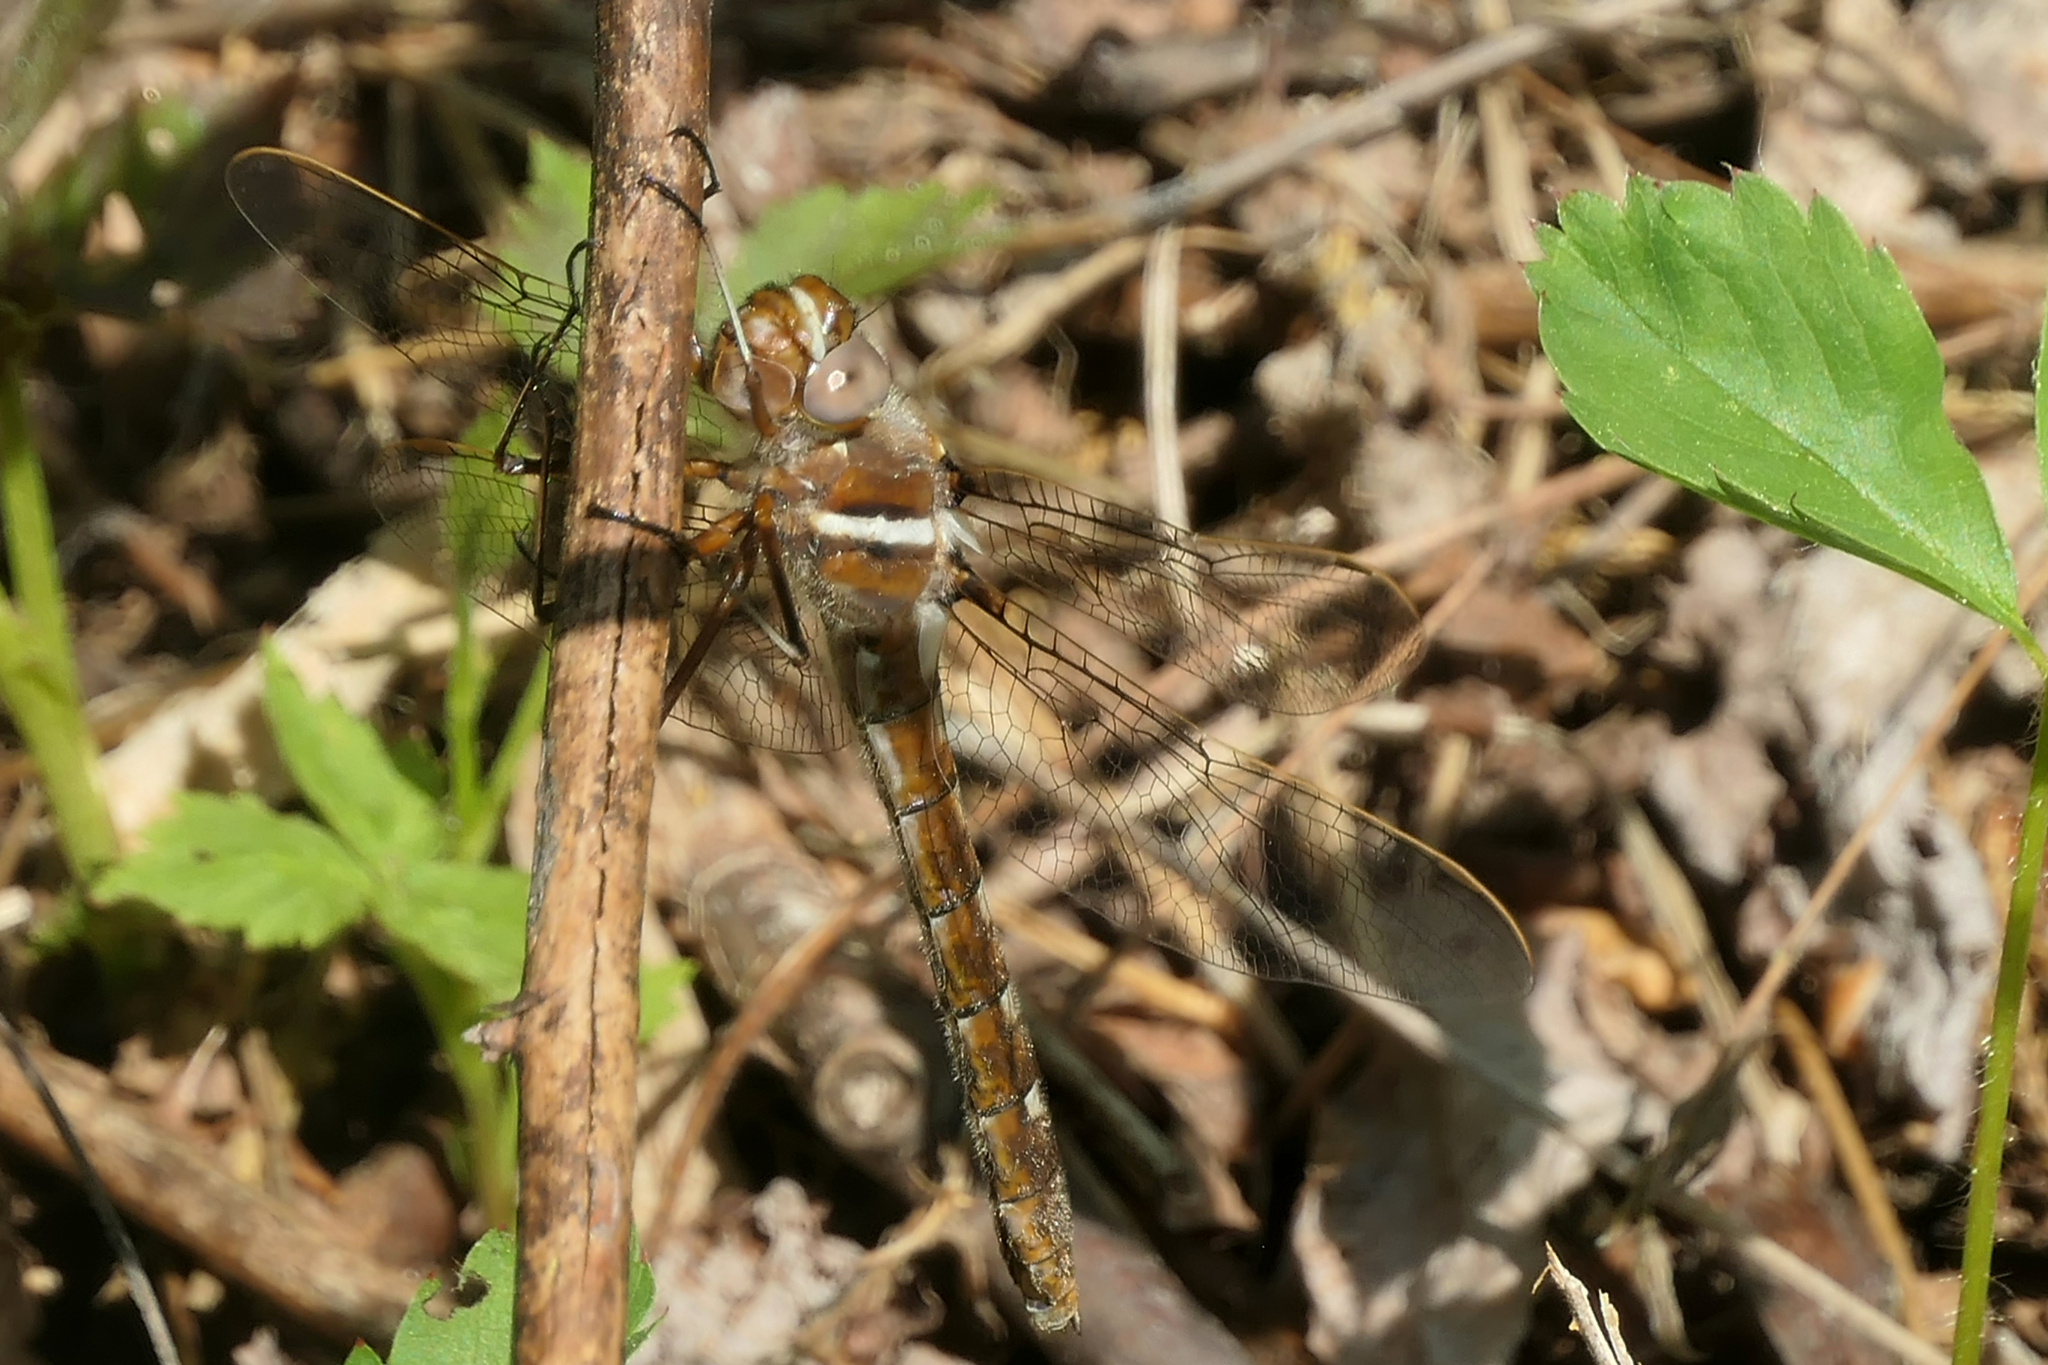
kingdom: Animalia
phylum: Arthropoda
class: Insecta
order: Odonata
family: Macromiidae
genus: Didymops
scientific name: Didymops transversa
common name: Stream cruiser
